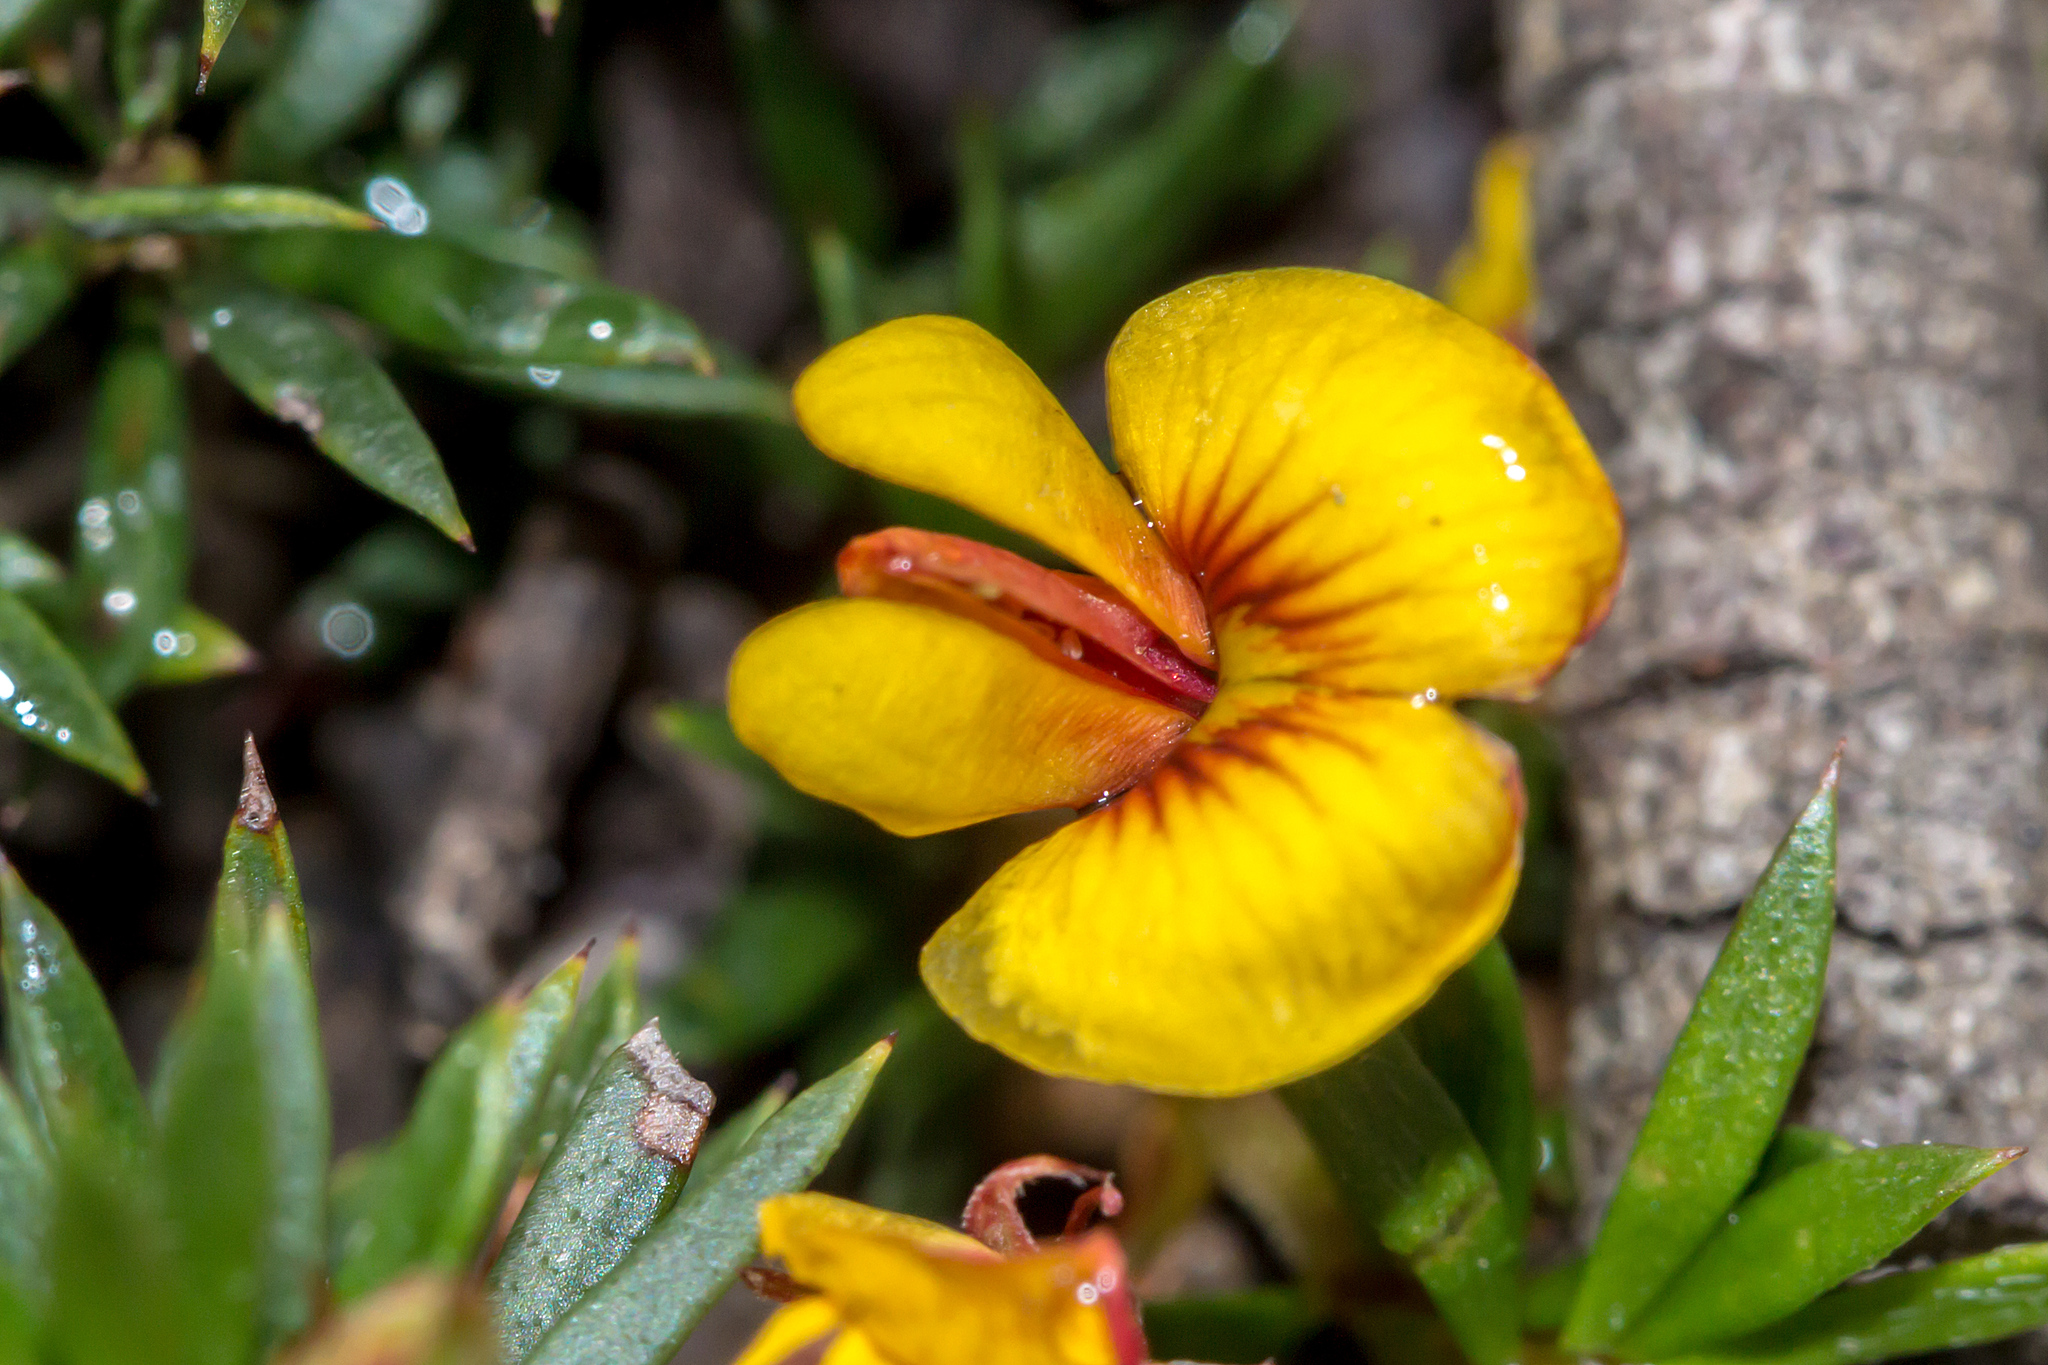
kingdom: Plantae
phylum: Tracheophyta
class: Magnoliopsida
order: Fabales
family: Fabaceae
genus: Pultenaea
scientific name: Pultenaea pedunculata
